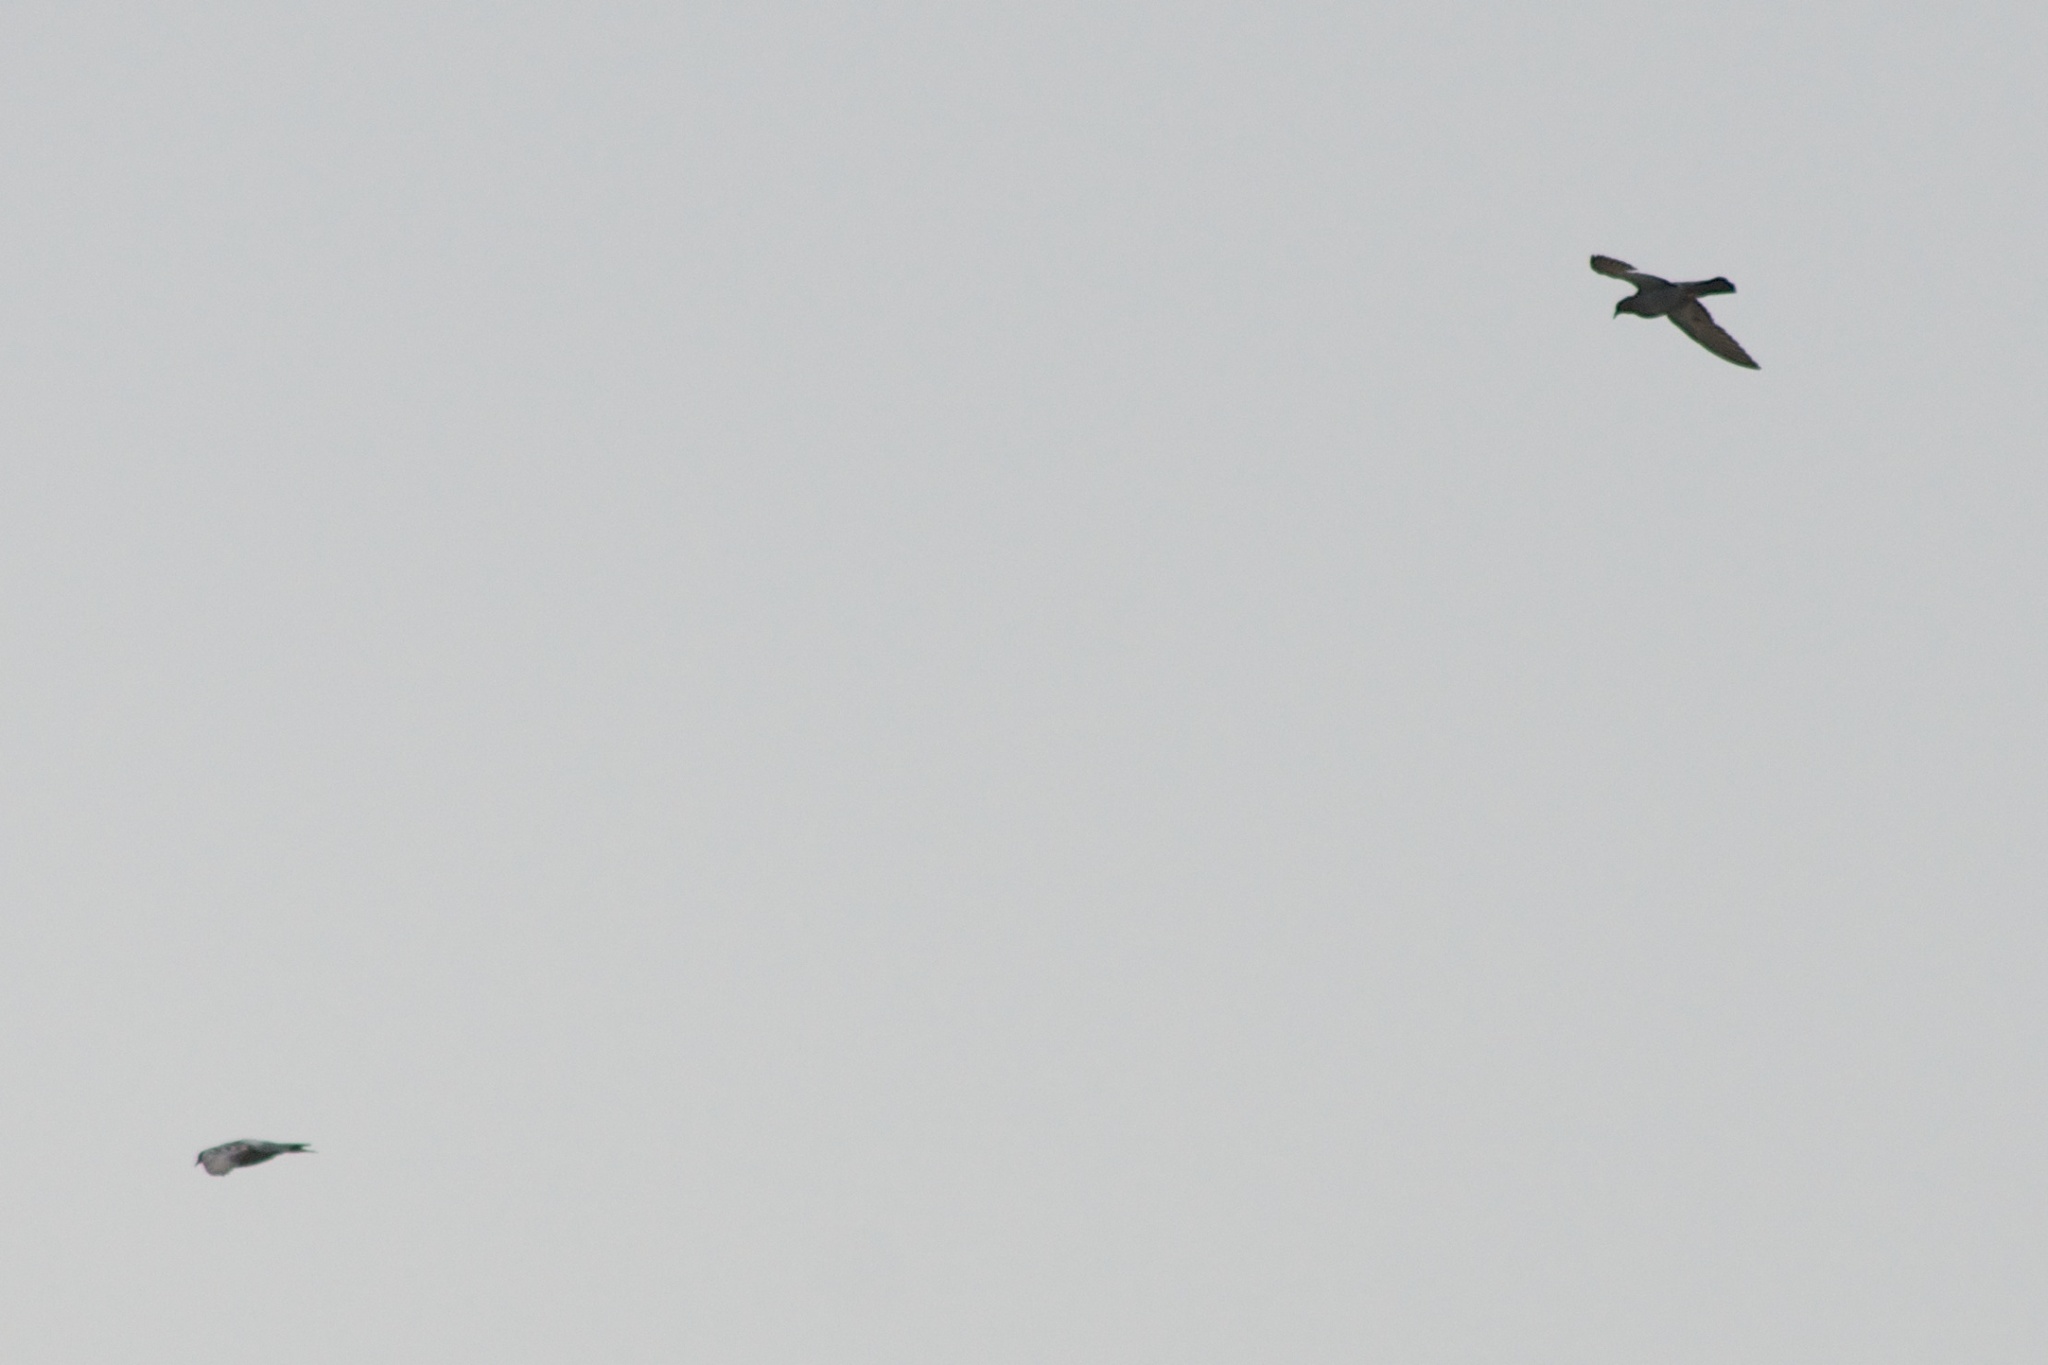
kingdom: Animalia
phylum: Chordata
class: Aves
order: Columbiformes
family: Columbidae
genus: Columba
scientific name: Columba livia
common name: Rock pigeon
